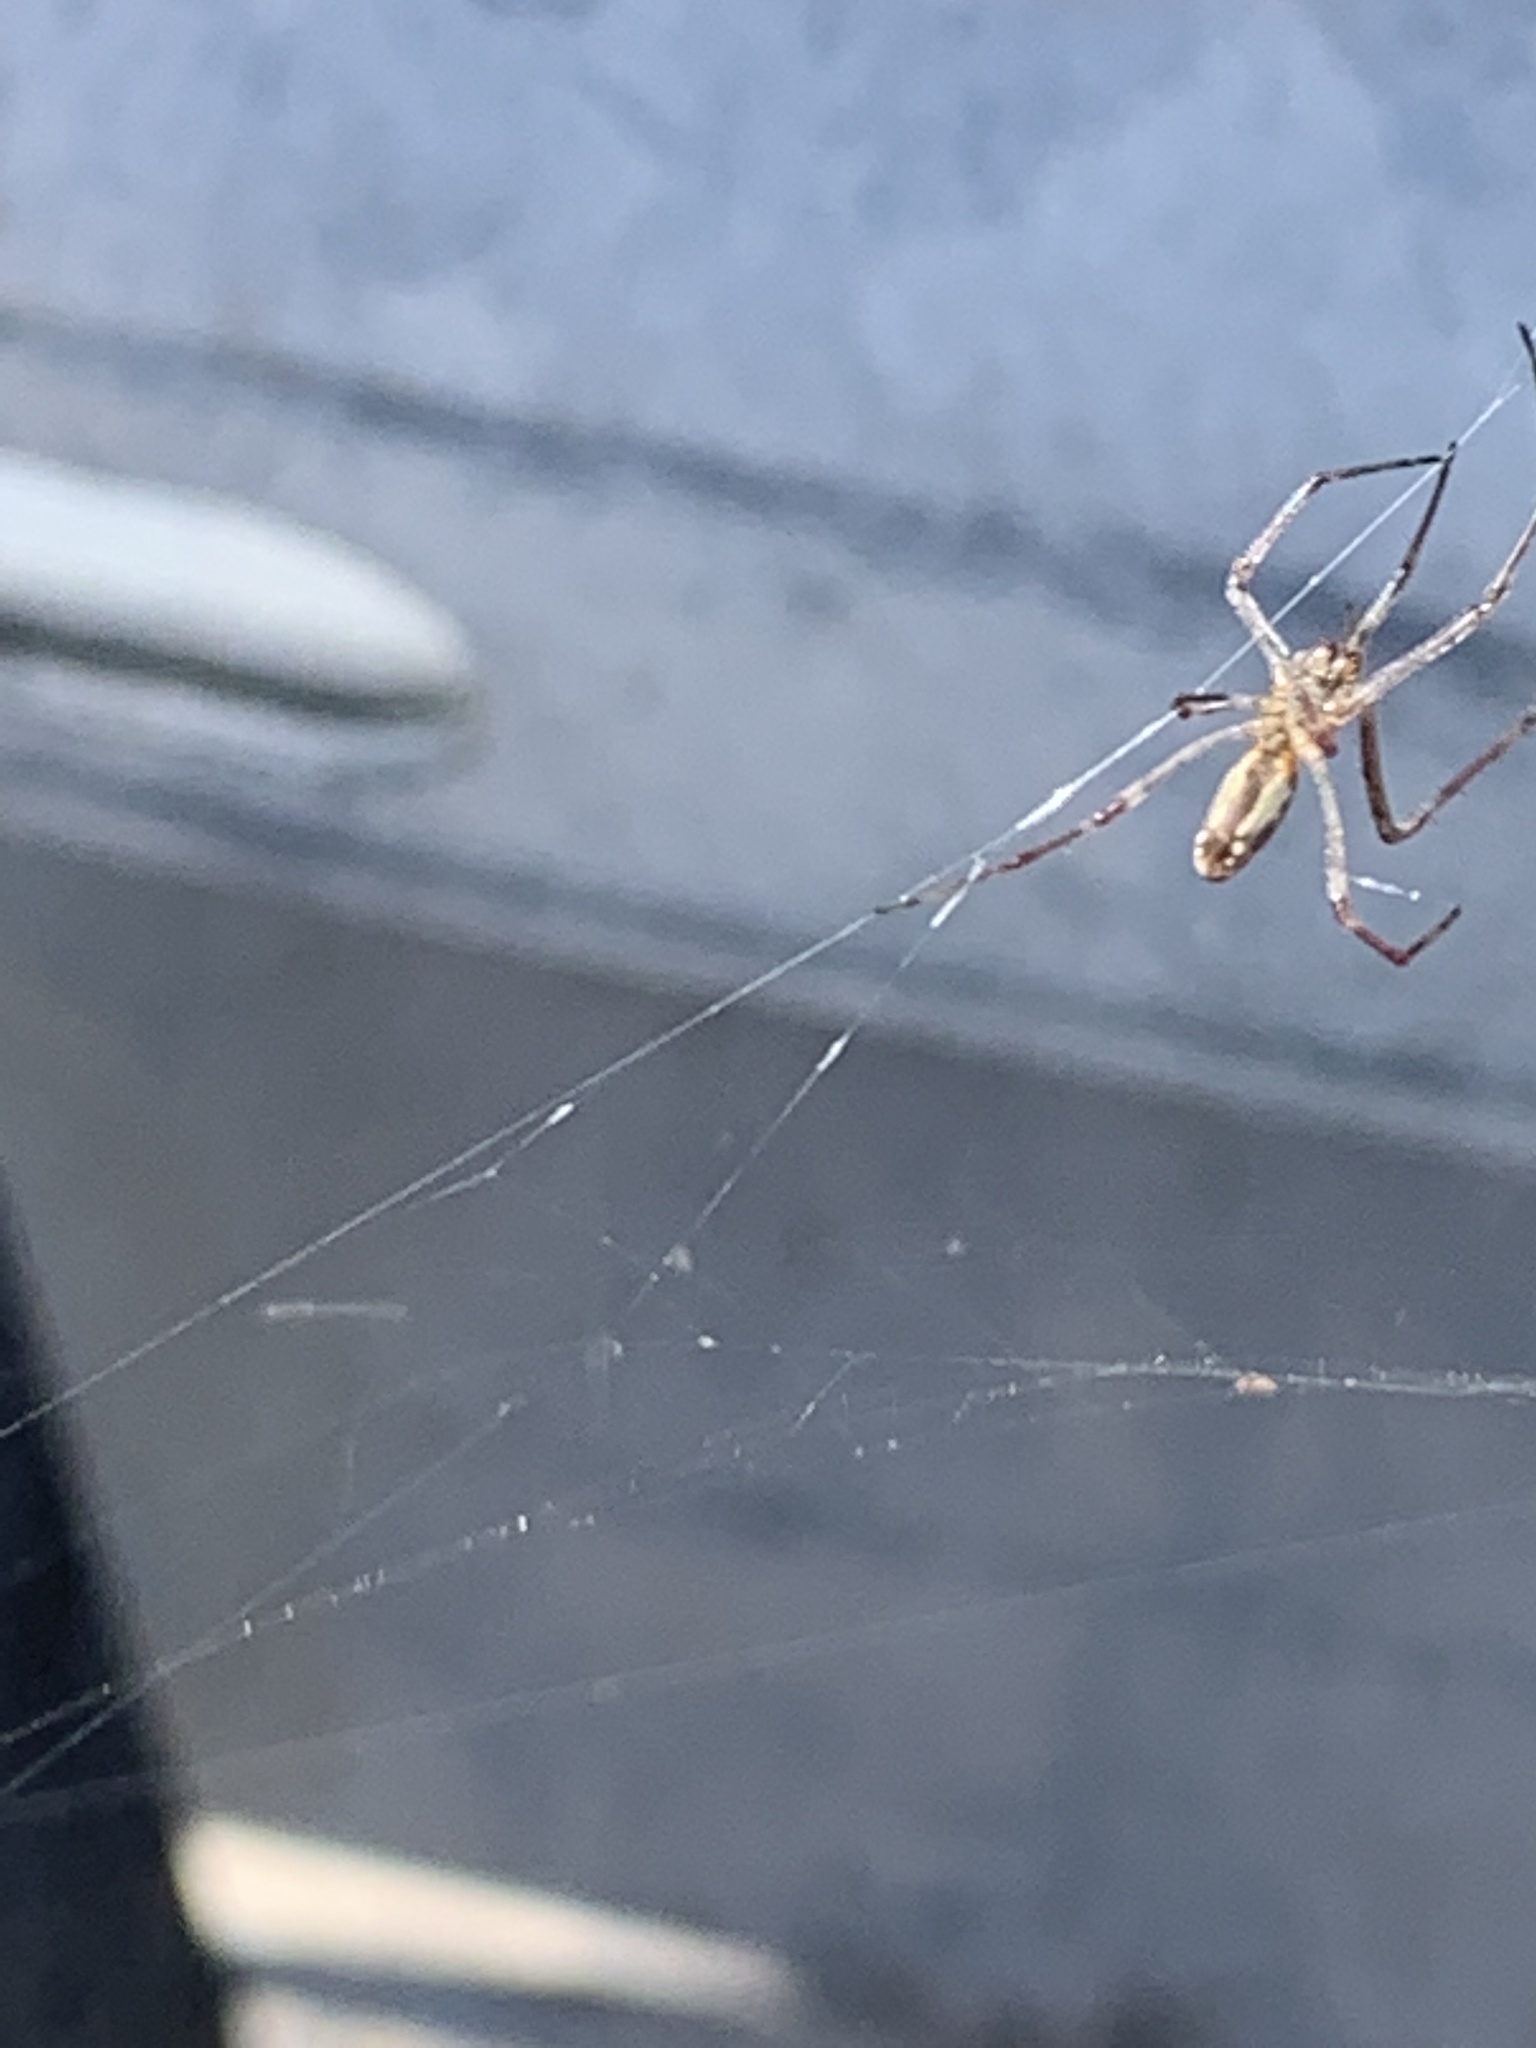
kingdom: Animalia
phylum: Arthropoda
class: Arachnida
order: Araneae
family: Tetragnathidae
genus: Tetragnatha
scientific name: Tetragnatha
